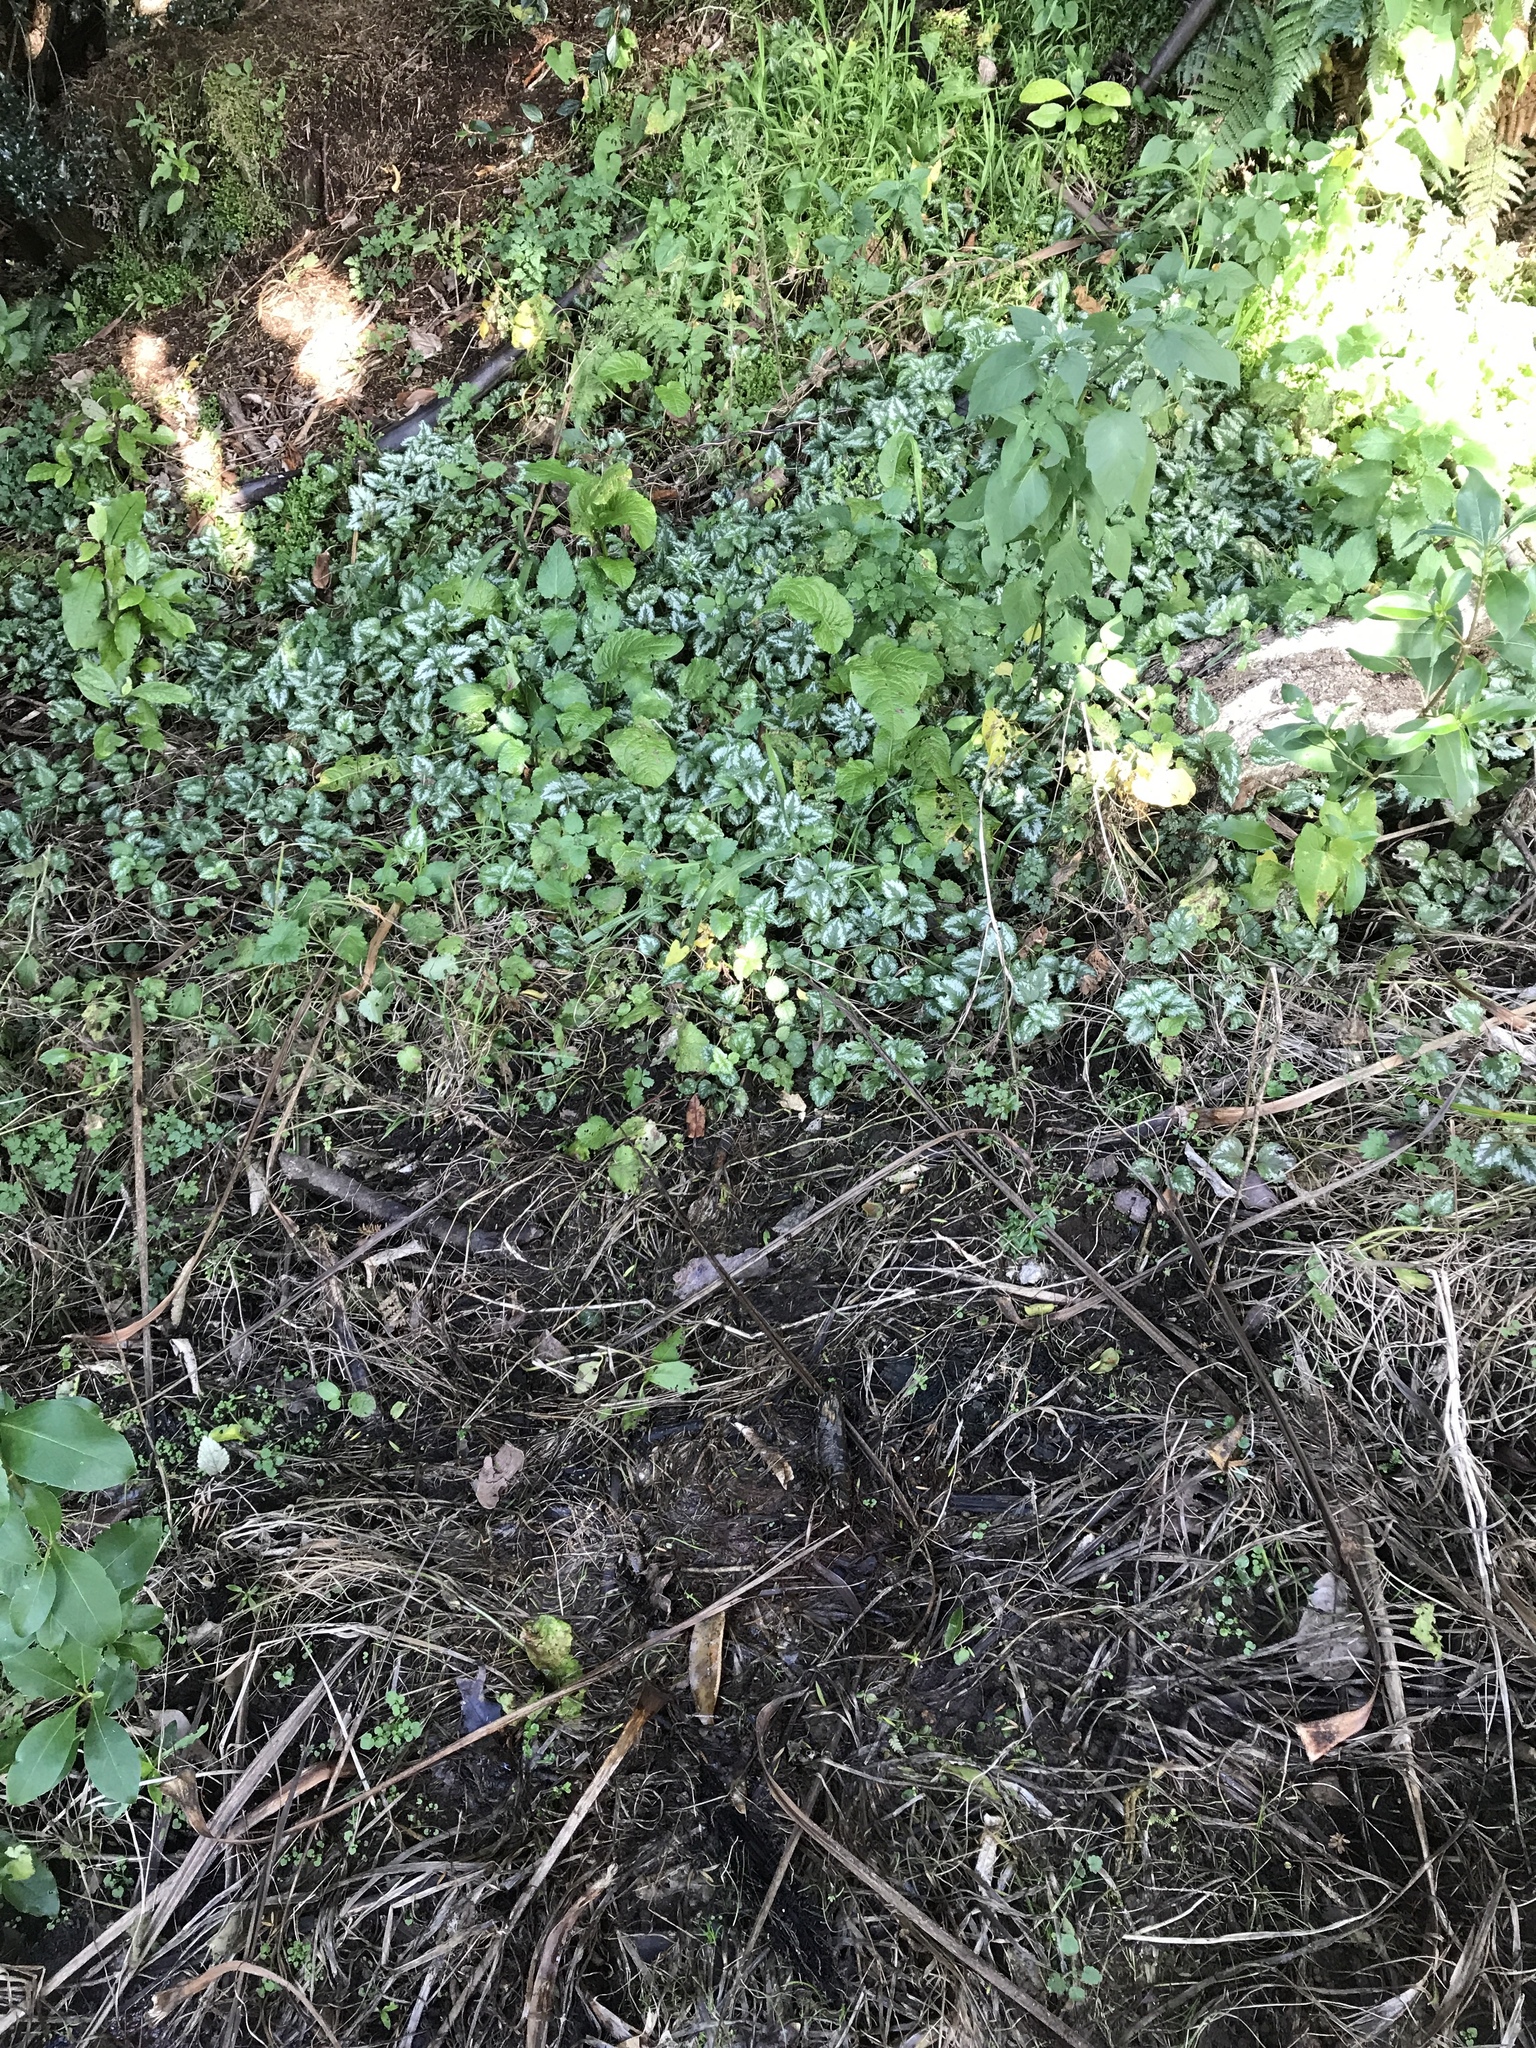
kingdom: Plantae
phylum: Tracheophyta
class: Magnoliopsida
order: Lamiales
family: Lamiaceae
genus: Lamium
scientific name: Lamium galeobdolon
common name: Yellow archangel
